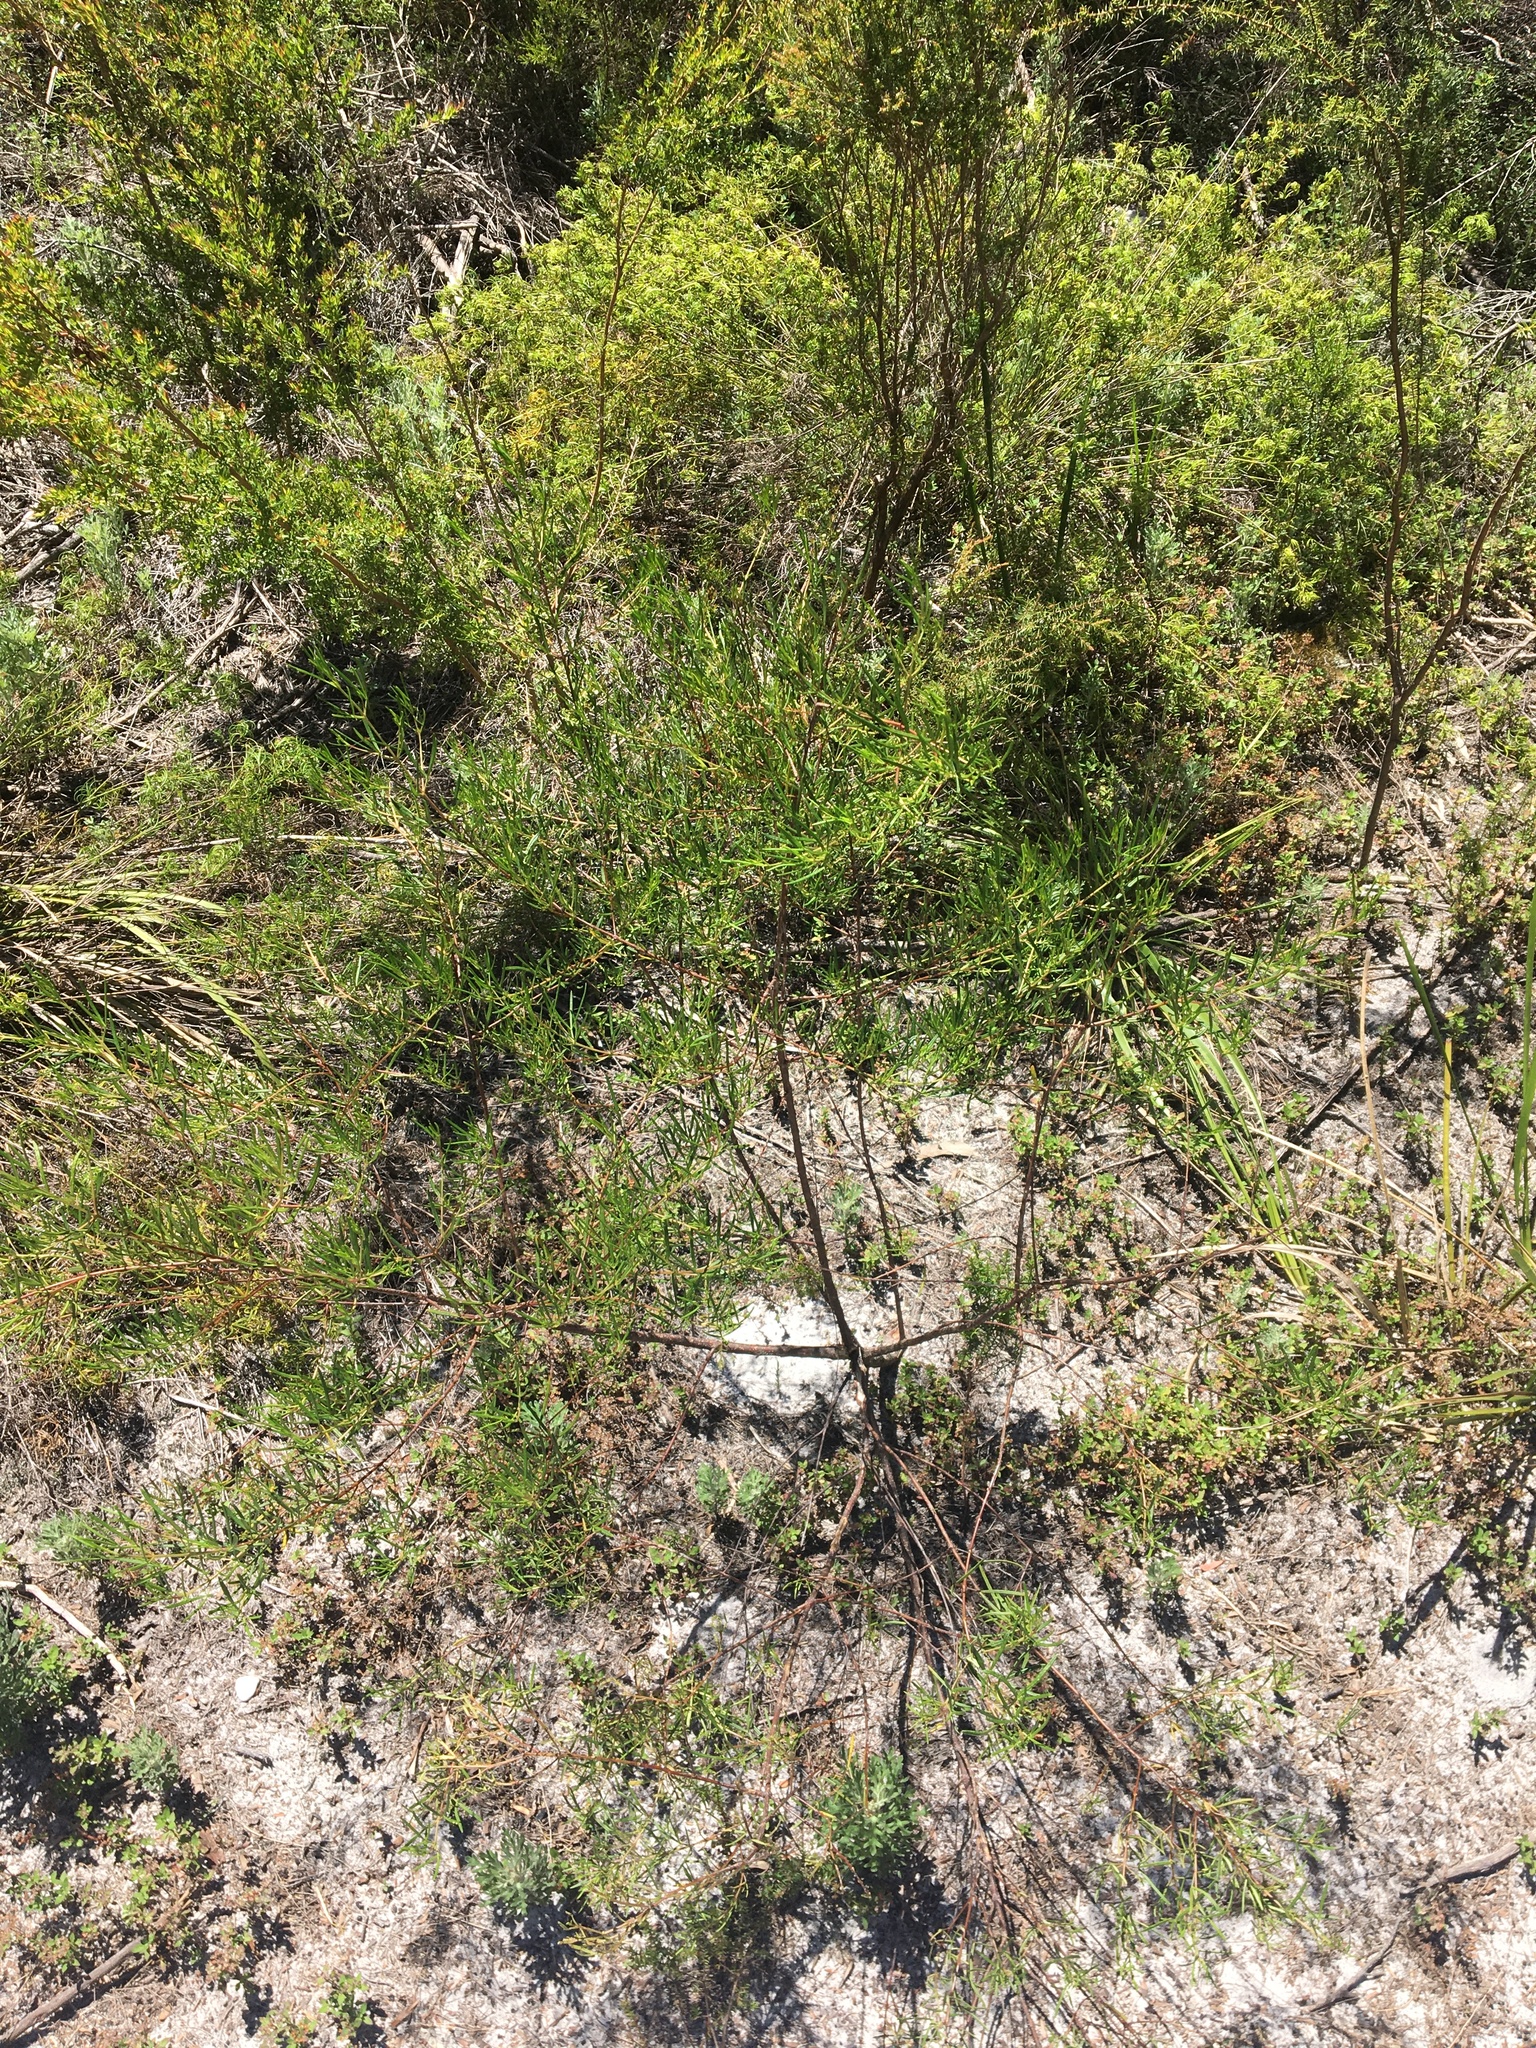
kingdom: Plantae
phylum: Tracheophyta
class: Magnoliopsida
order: Sapindales
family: Rutaceae
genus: Zieria
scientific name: Zieria laxiflora
